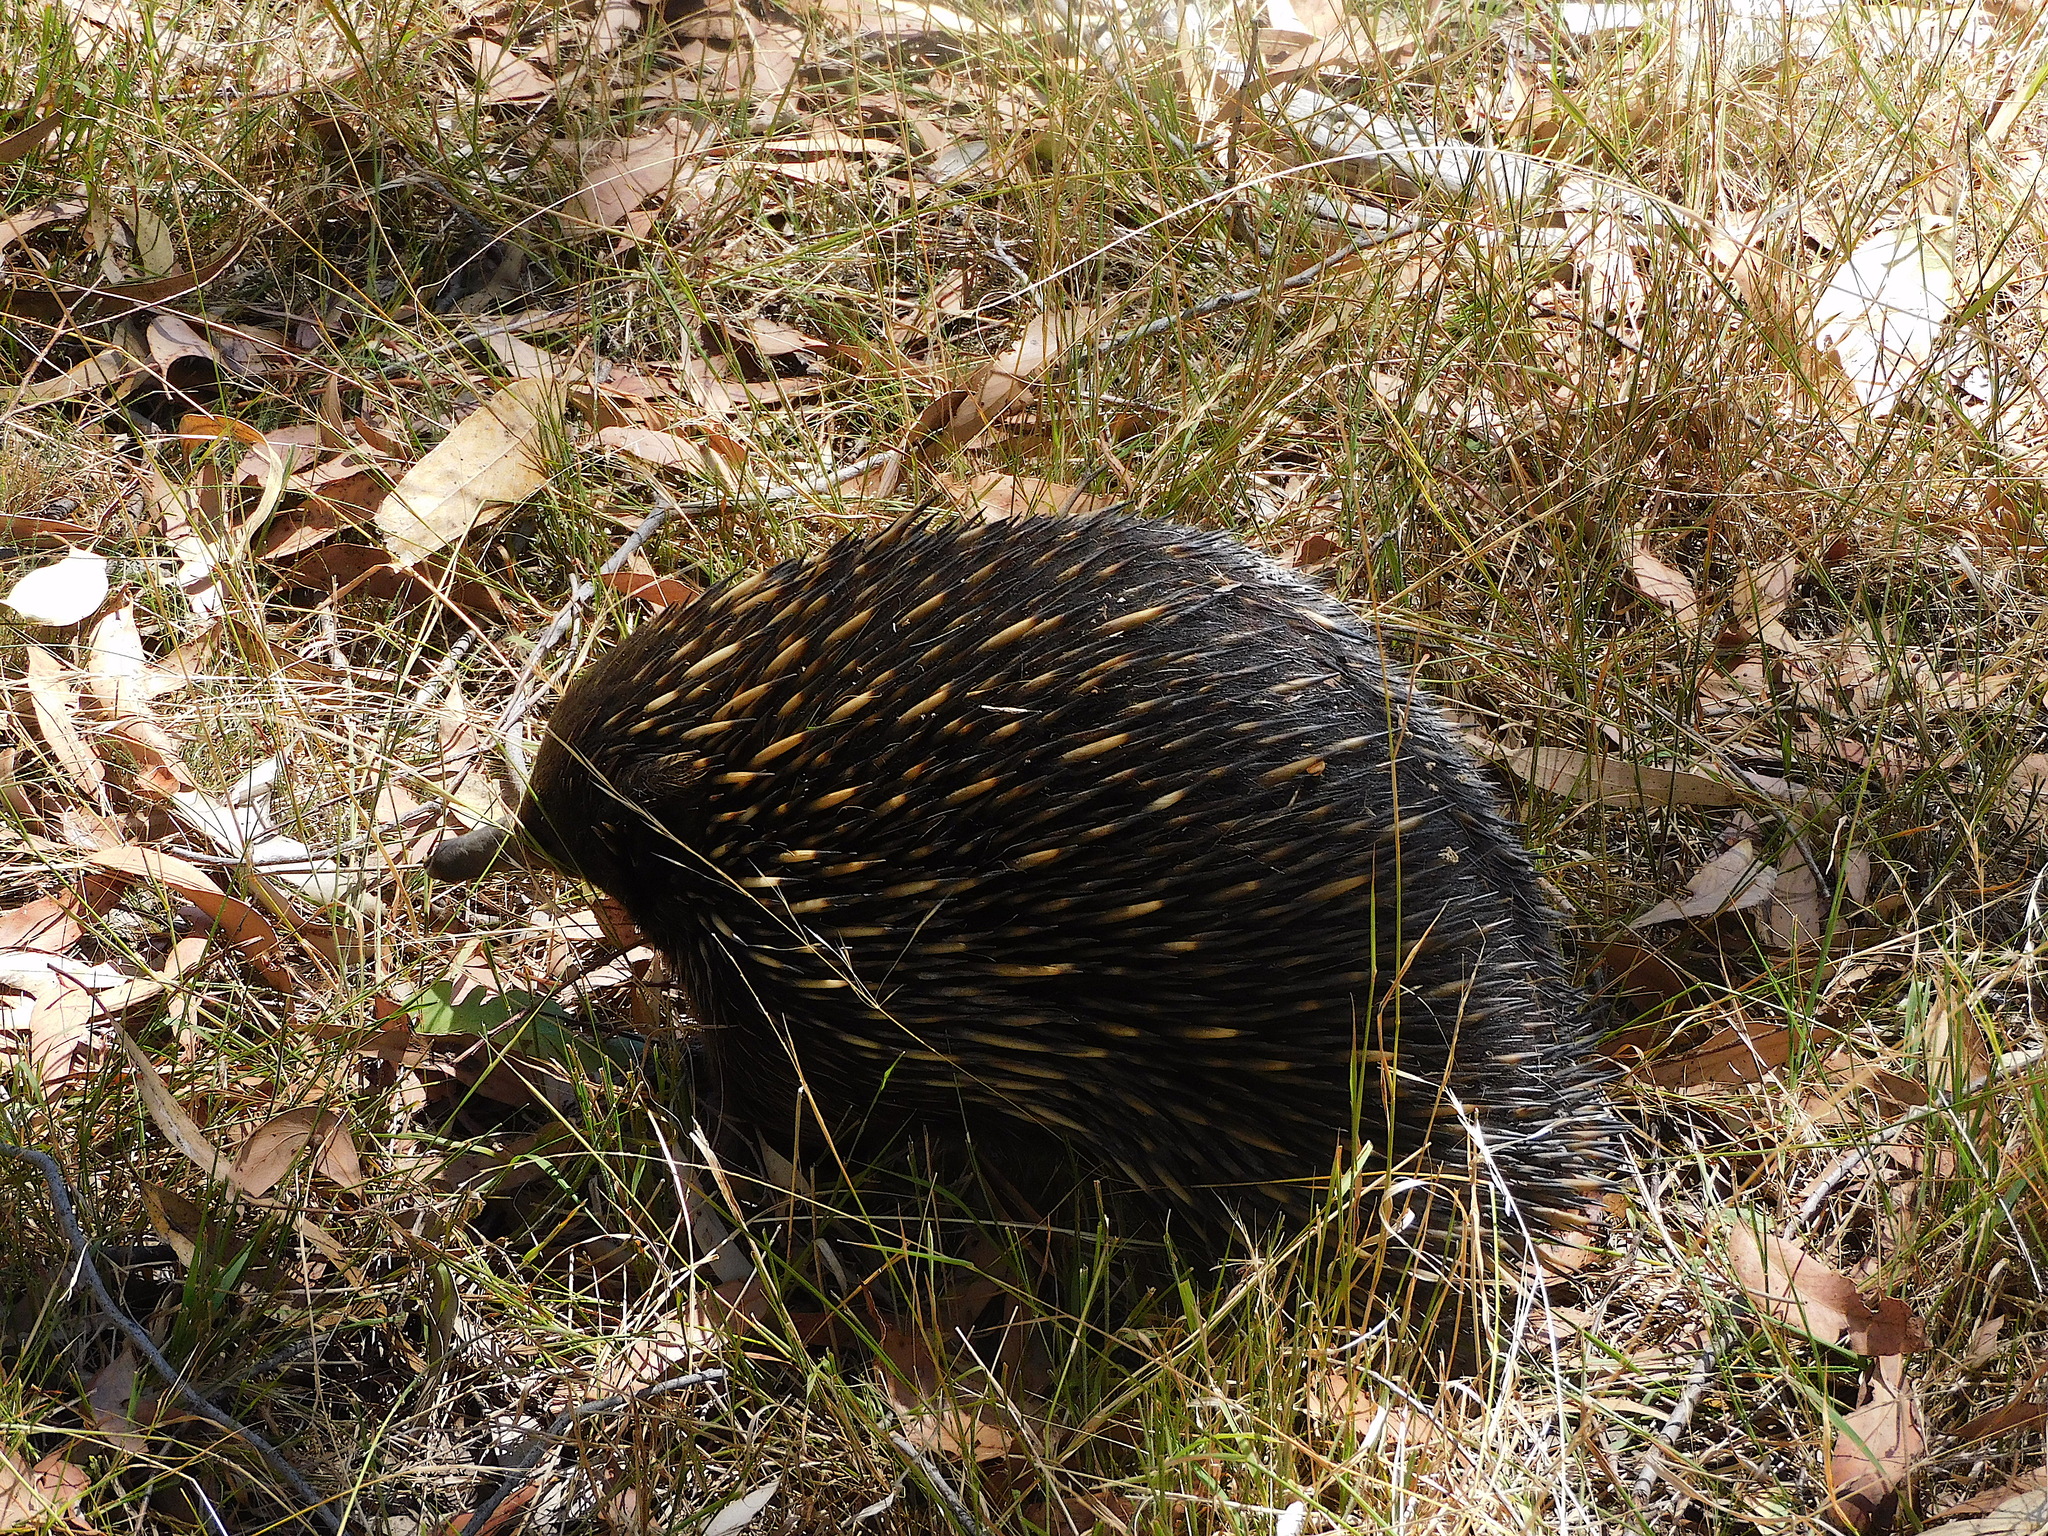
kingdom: Animalia
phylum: Chordata
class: Mammalia
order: Monotremata
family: Tachyglossidae
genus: Tachyglossus
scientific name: Tachyglossus aculeatus
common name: Short-beaked echidna
